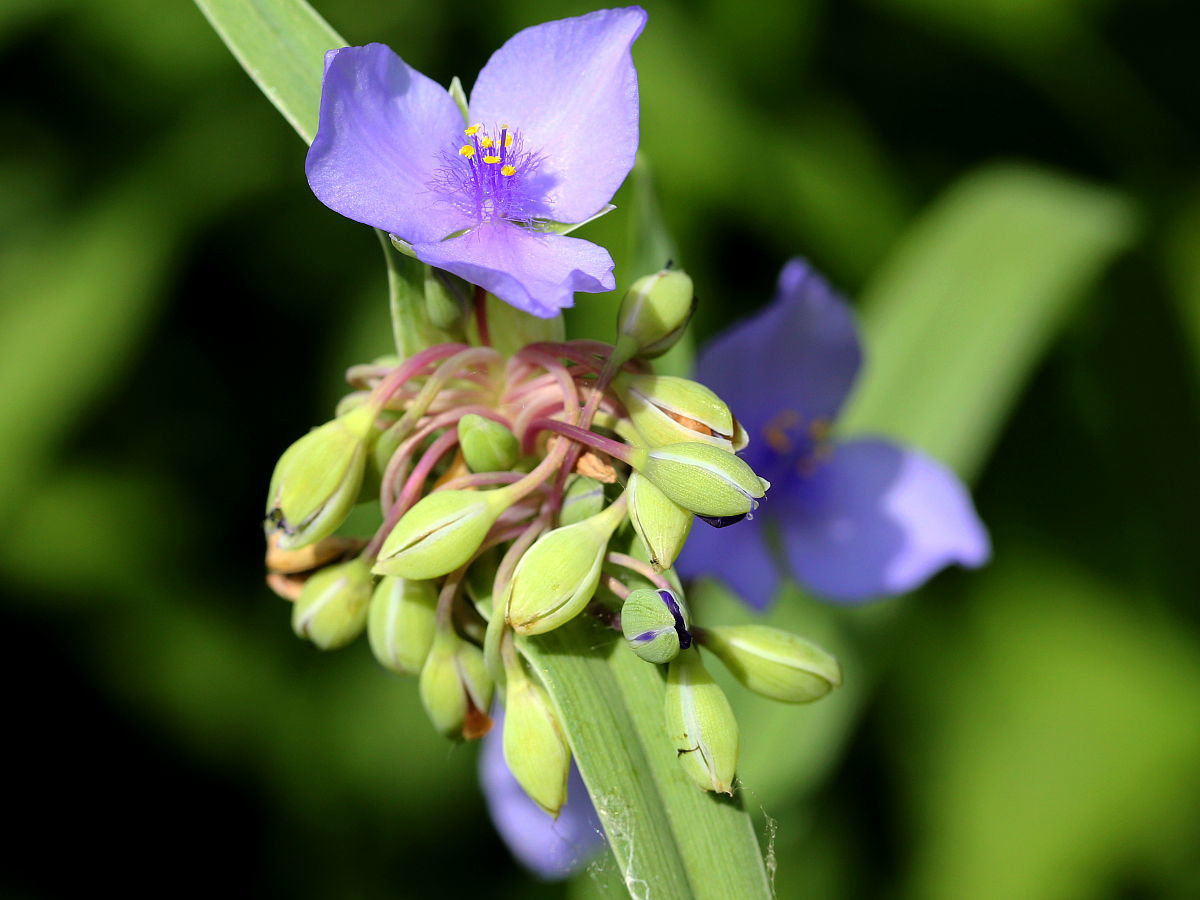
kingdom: Plantae
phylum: Tracheophyta
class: Liliopsida
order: Commelinales
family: Commelinaceae
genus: Tradescantia
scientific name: Tradescantia ohiensis
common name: Ohio spiderwort
